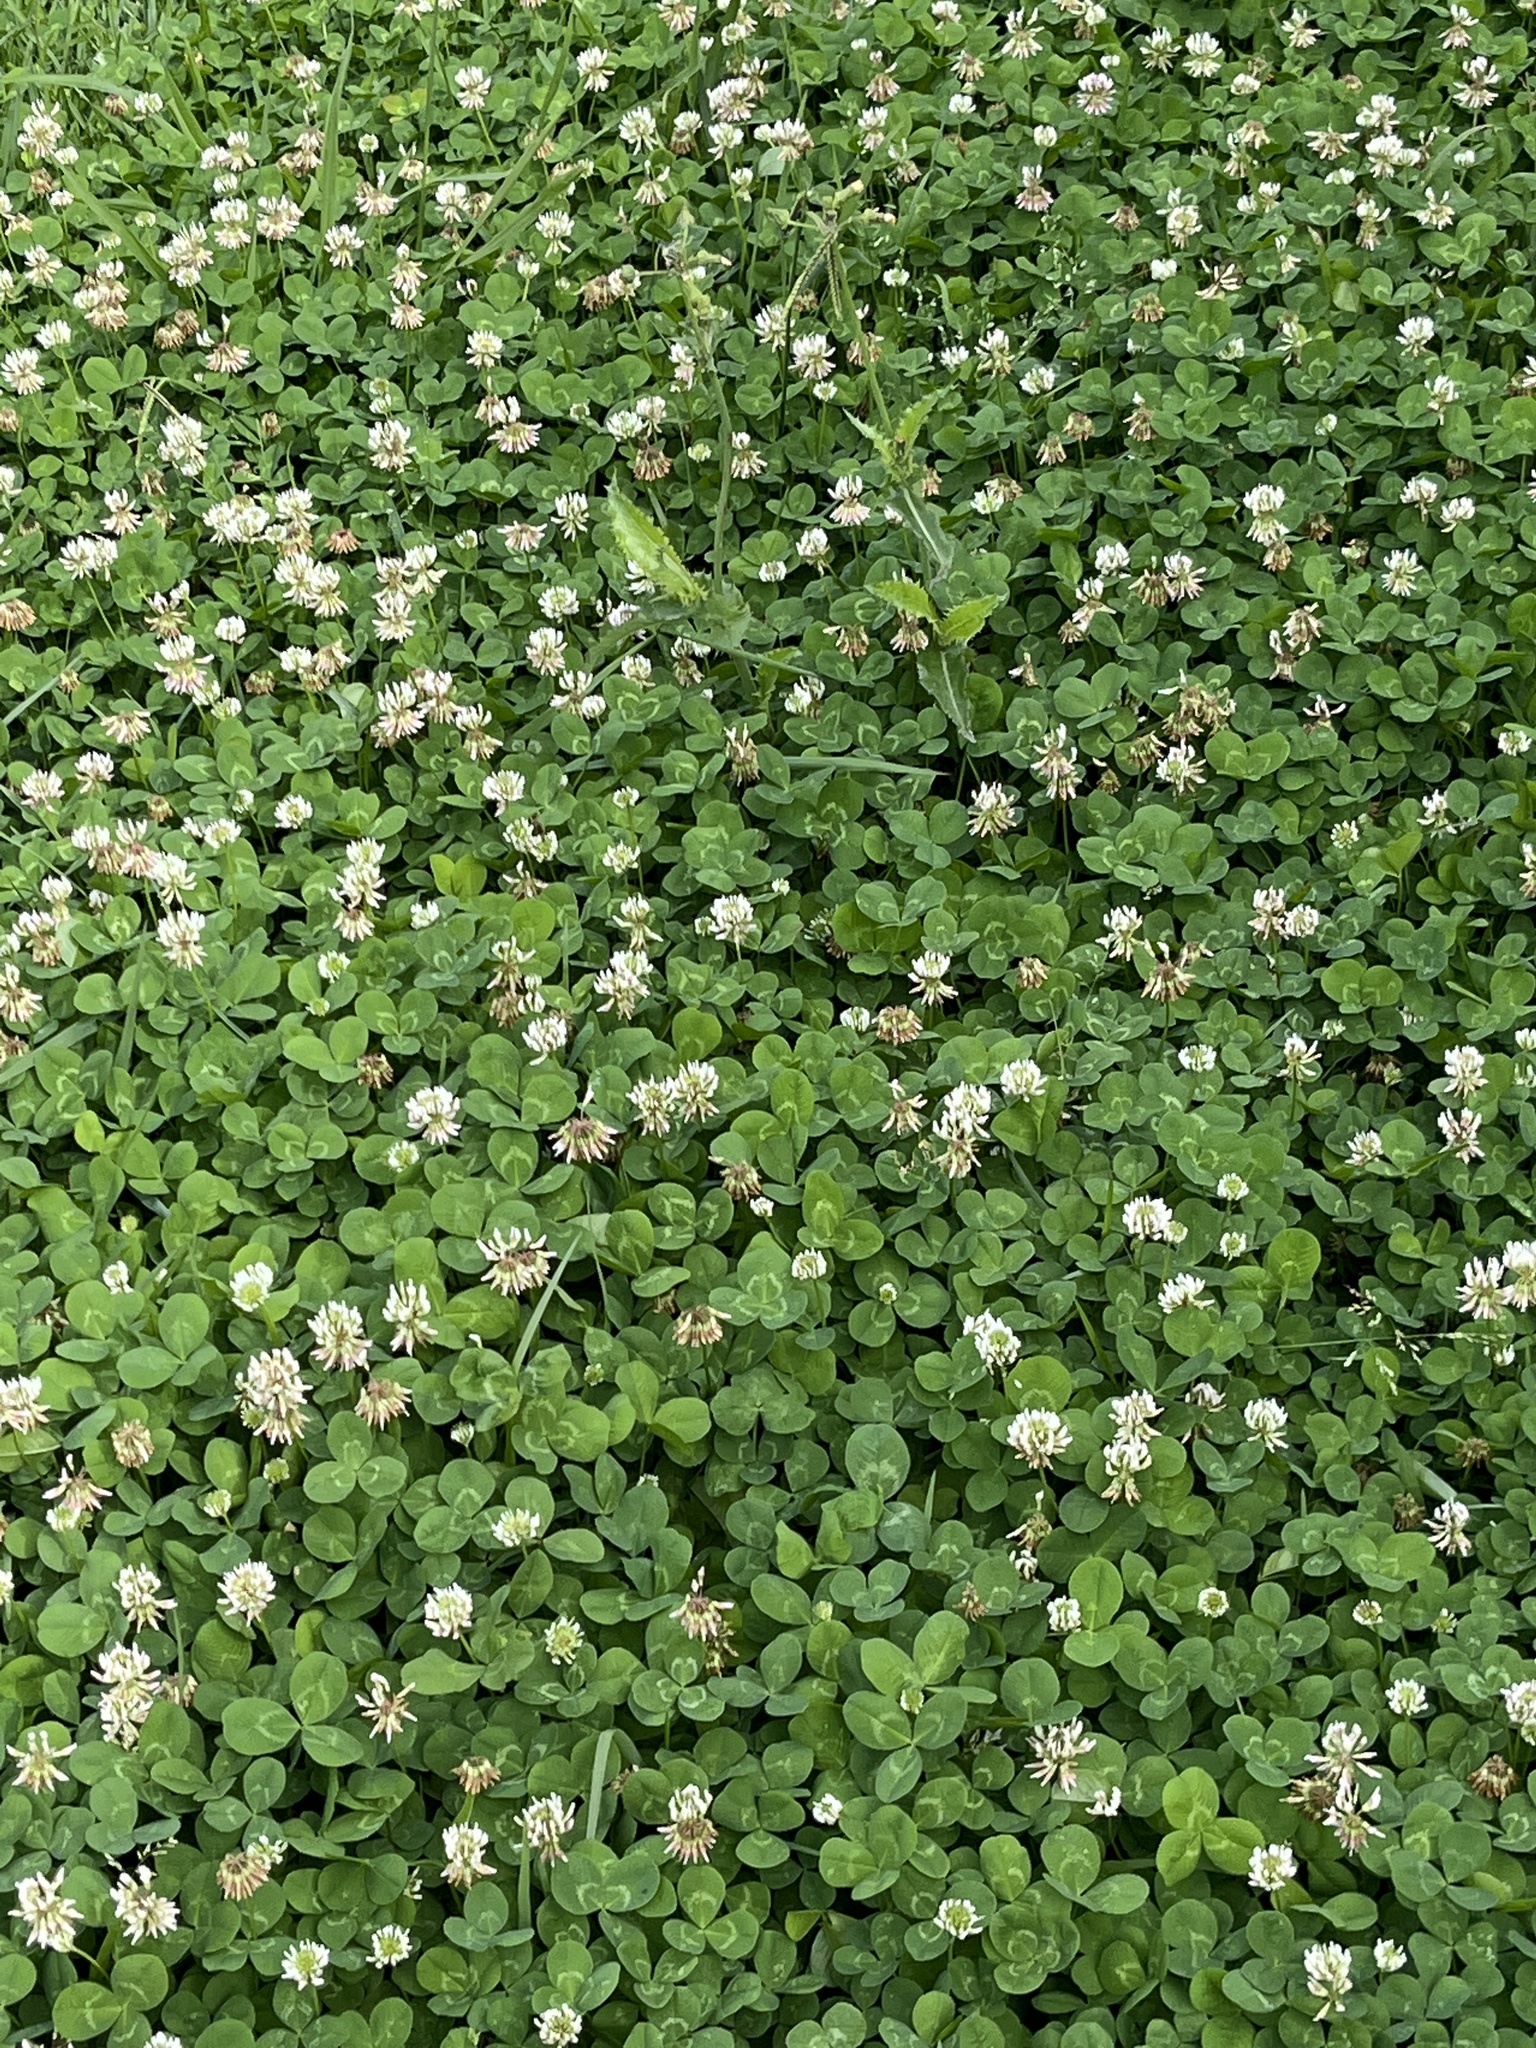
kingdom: Plantae
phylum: Tracheophyta
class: Magnoliopsida
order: Fabales
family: Fabaceae
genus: Trifolium
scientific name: Trifolium repens
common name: White clover
